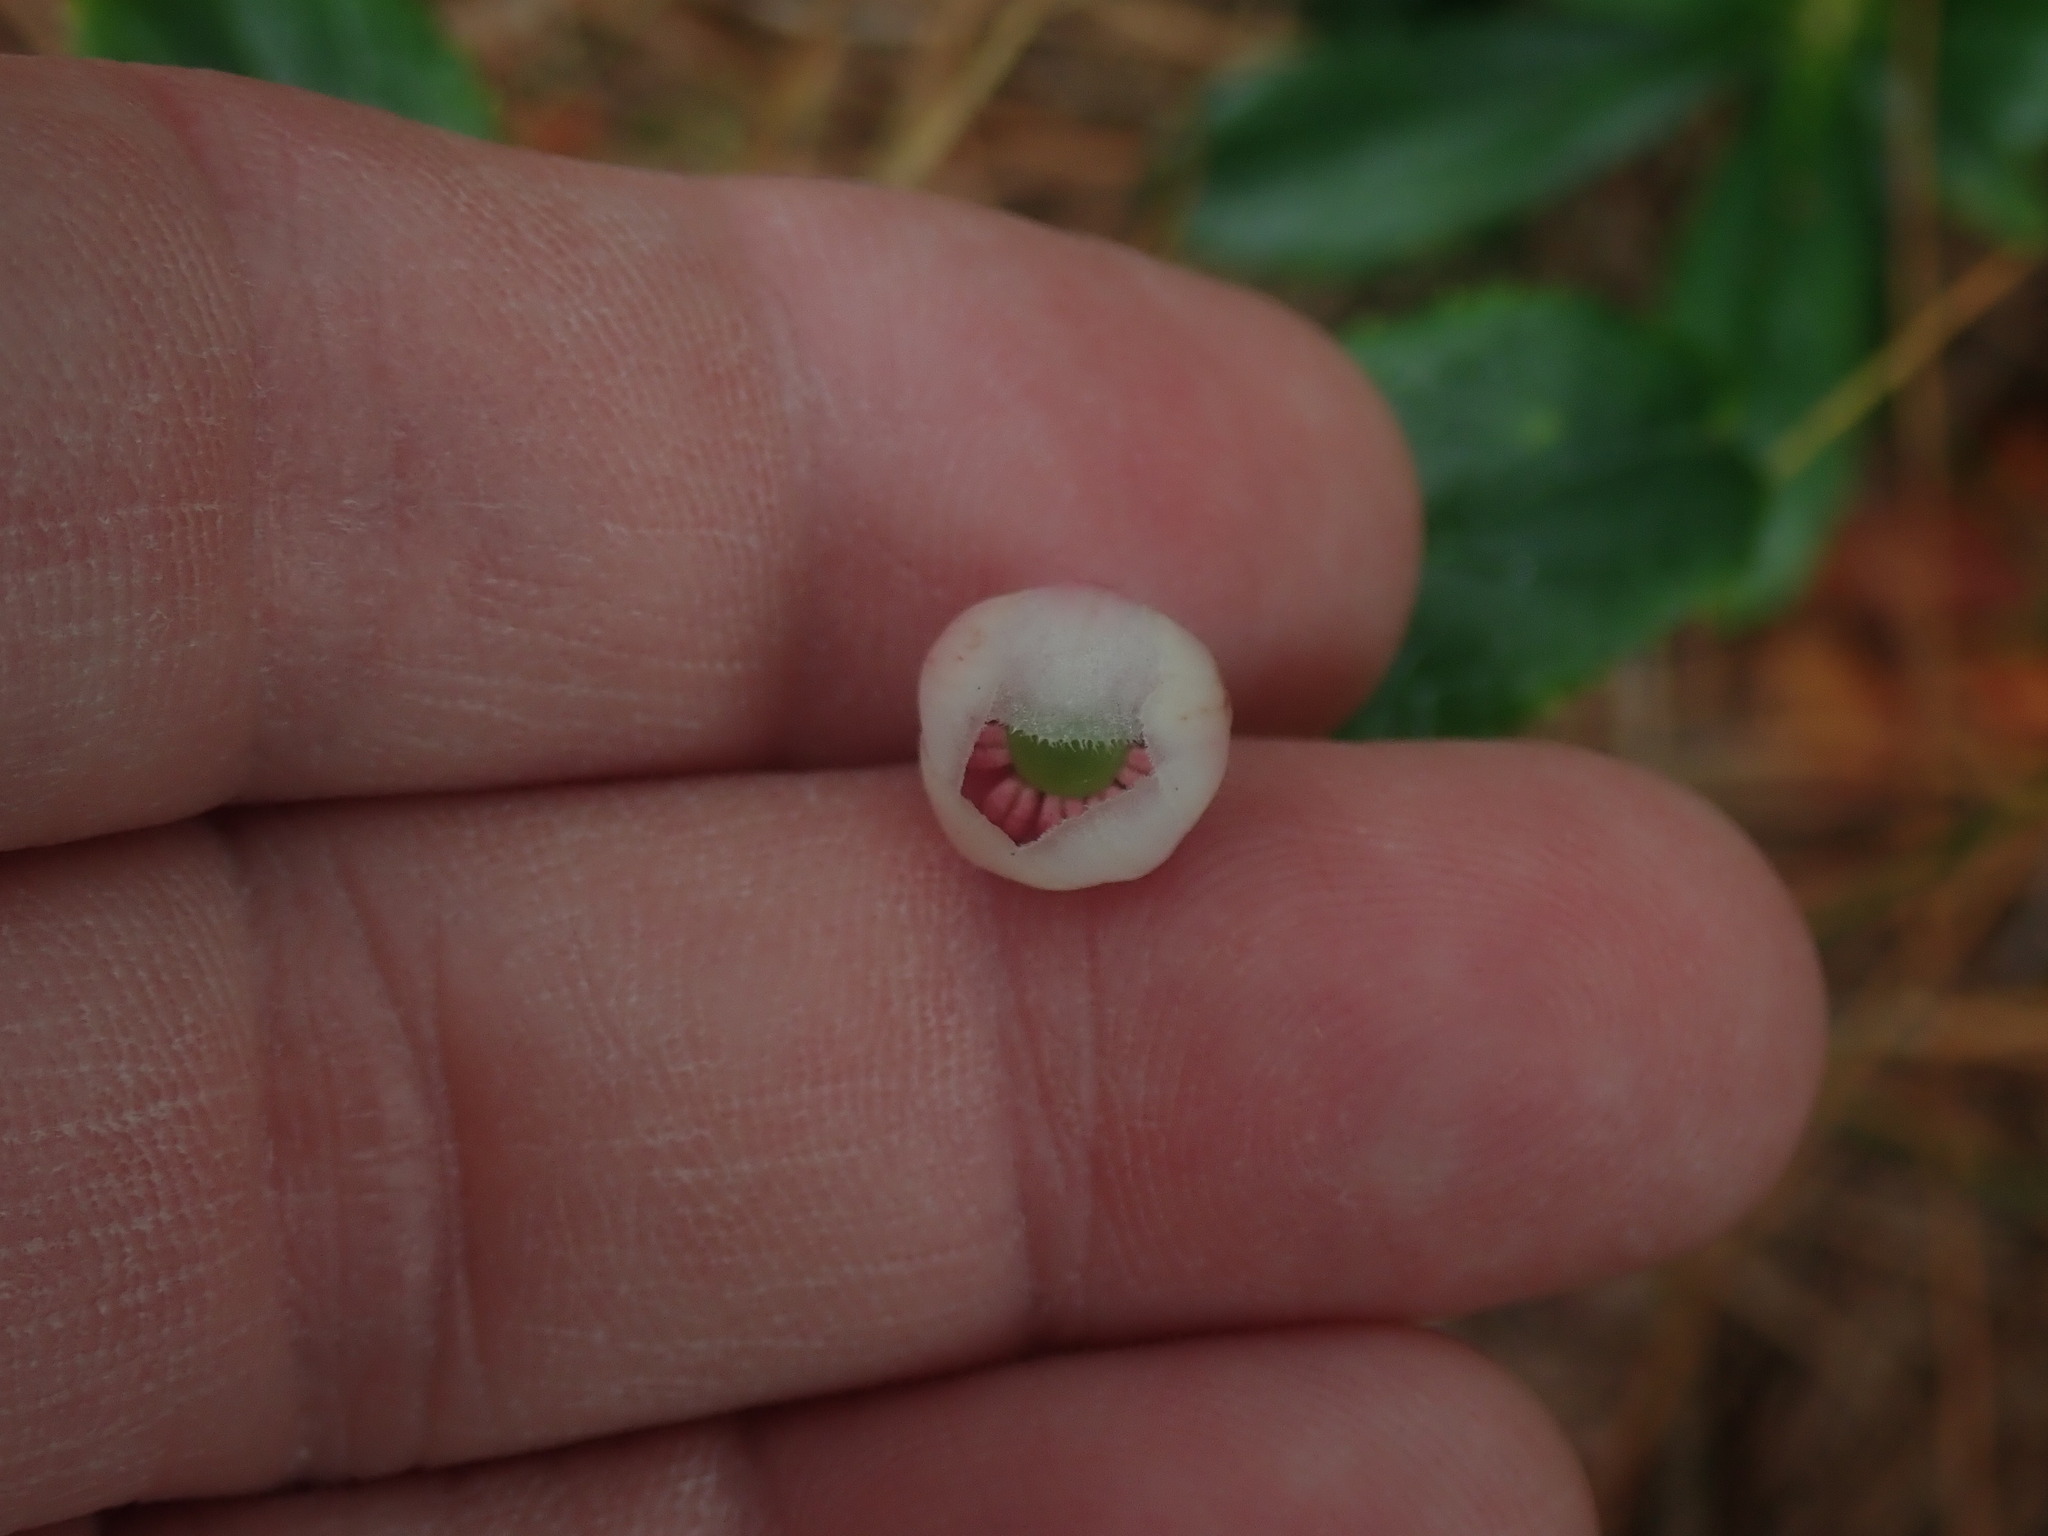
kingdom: Plantae
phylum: Tracheophyta
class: Magnoliopsida
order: Ericales
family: Ericaceae
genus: Chimaphila
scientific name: Chimaphila umbellata
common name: Pipsissewa
